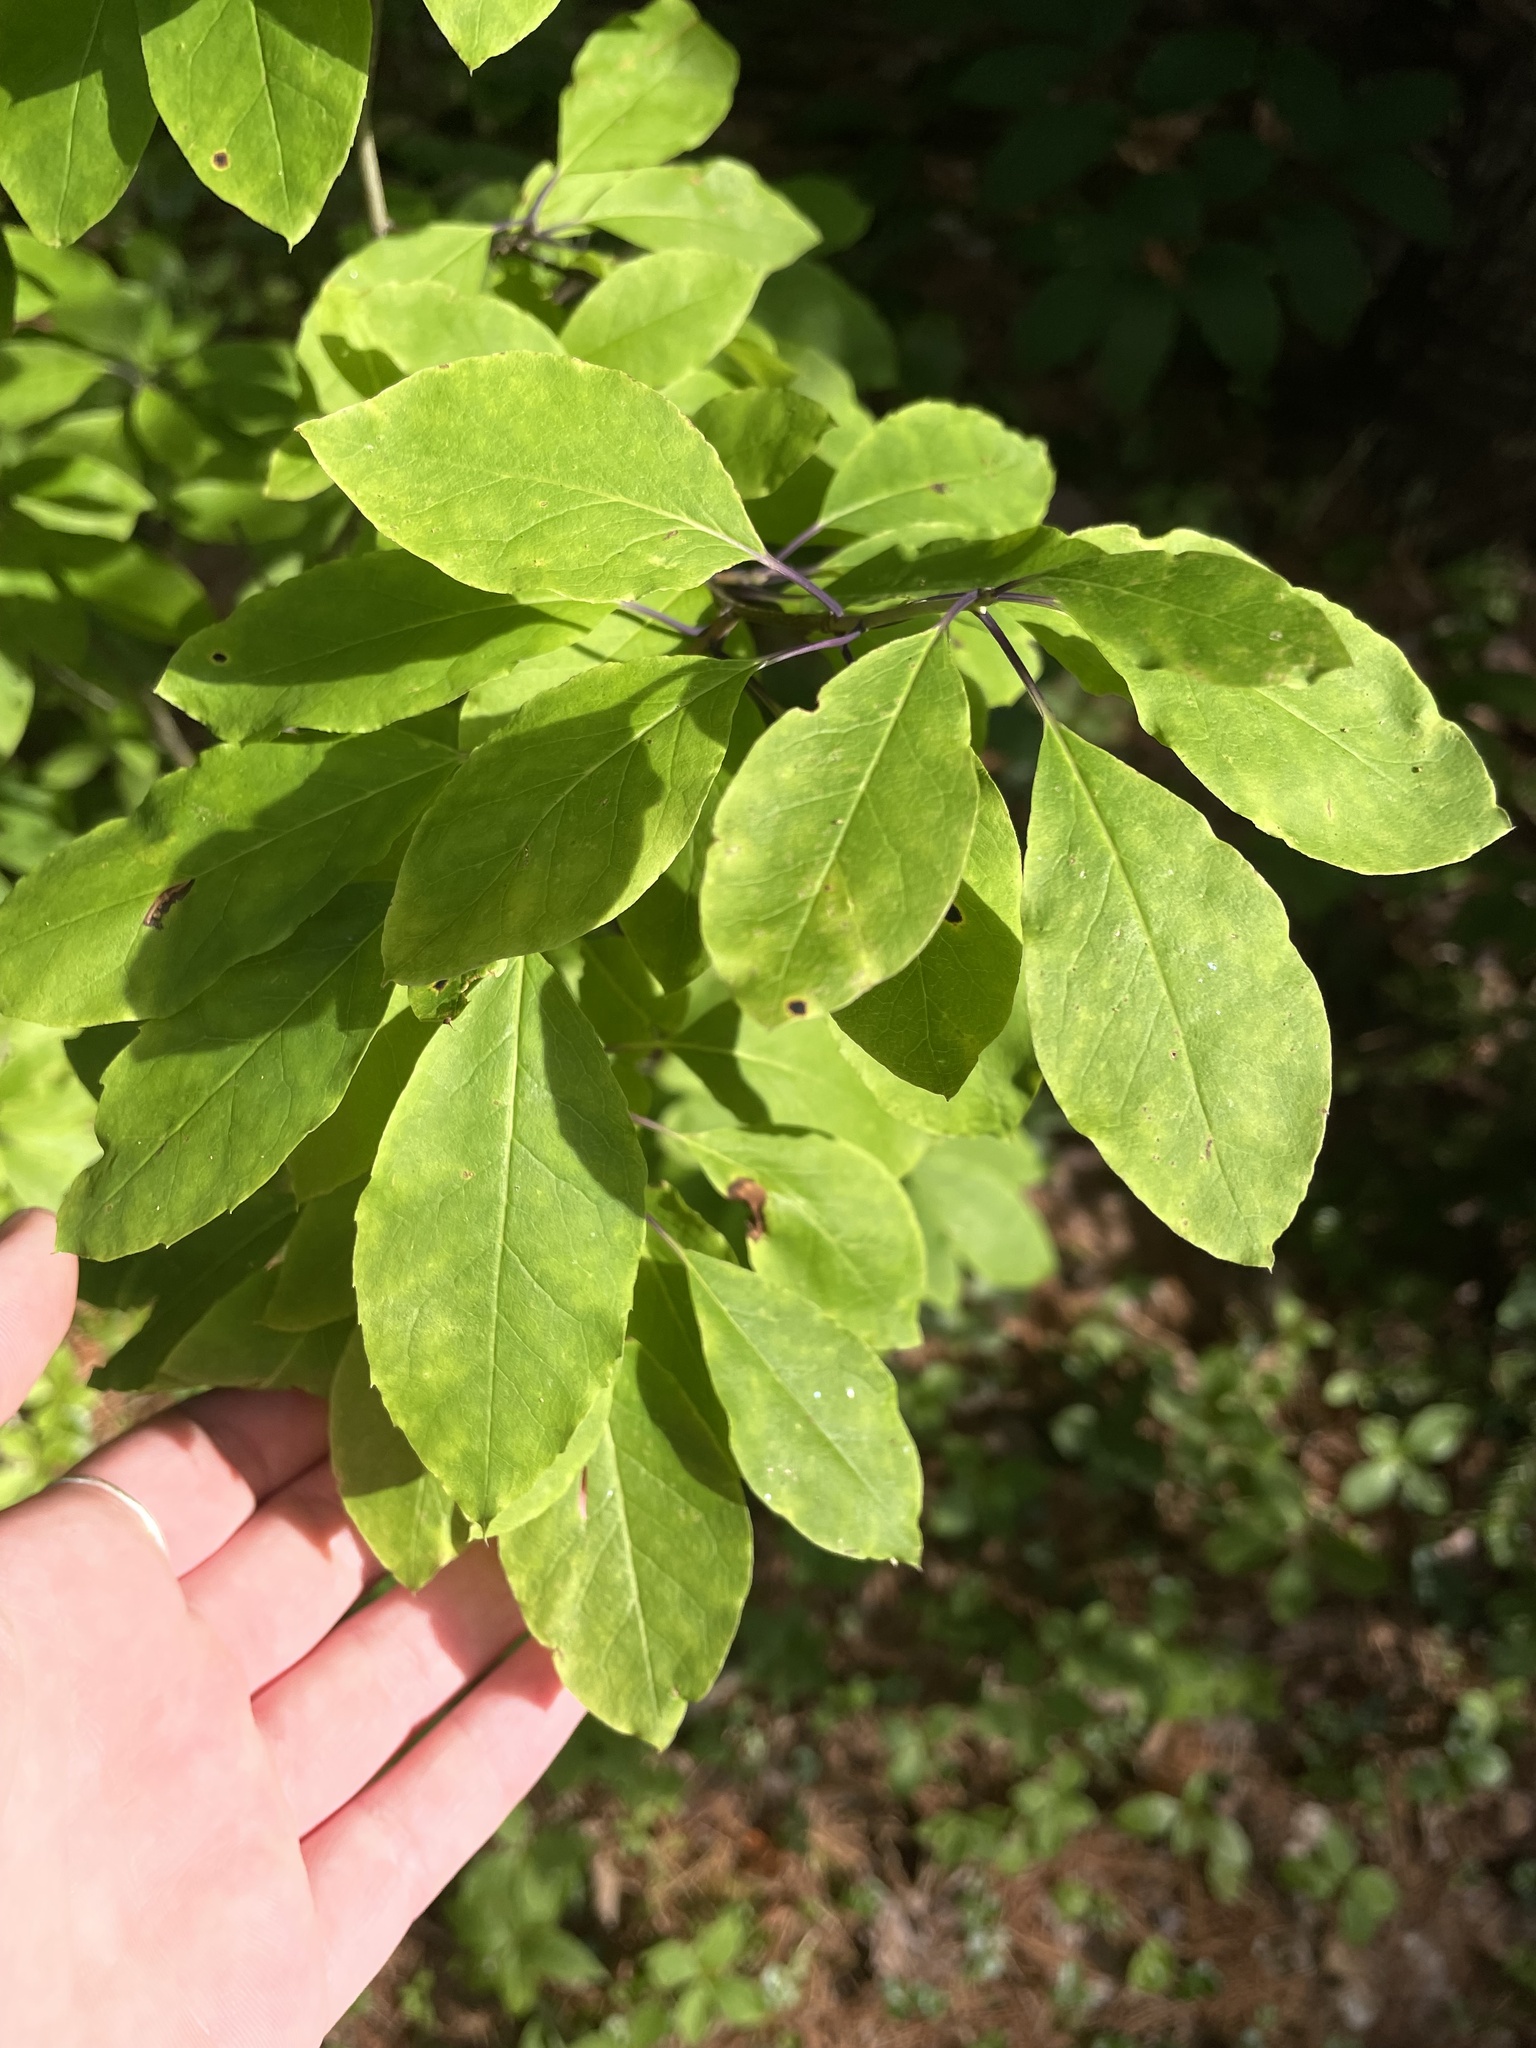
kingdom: Plantae
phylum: Tracheophyta
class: Magnoliopsida
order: Aquifoliales
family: Aquifoliaceae
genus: Ilex
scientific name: Ilex mucronata
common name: Catberry
